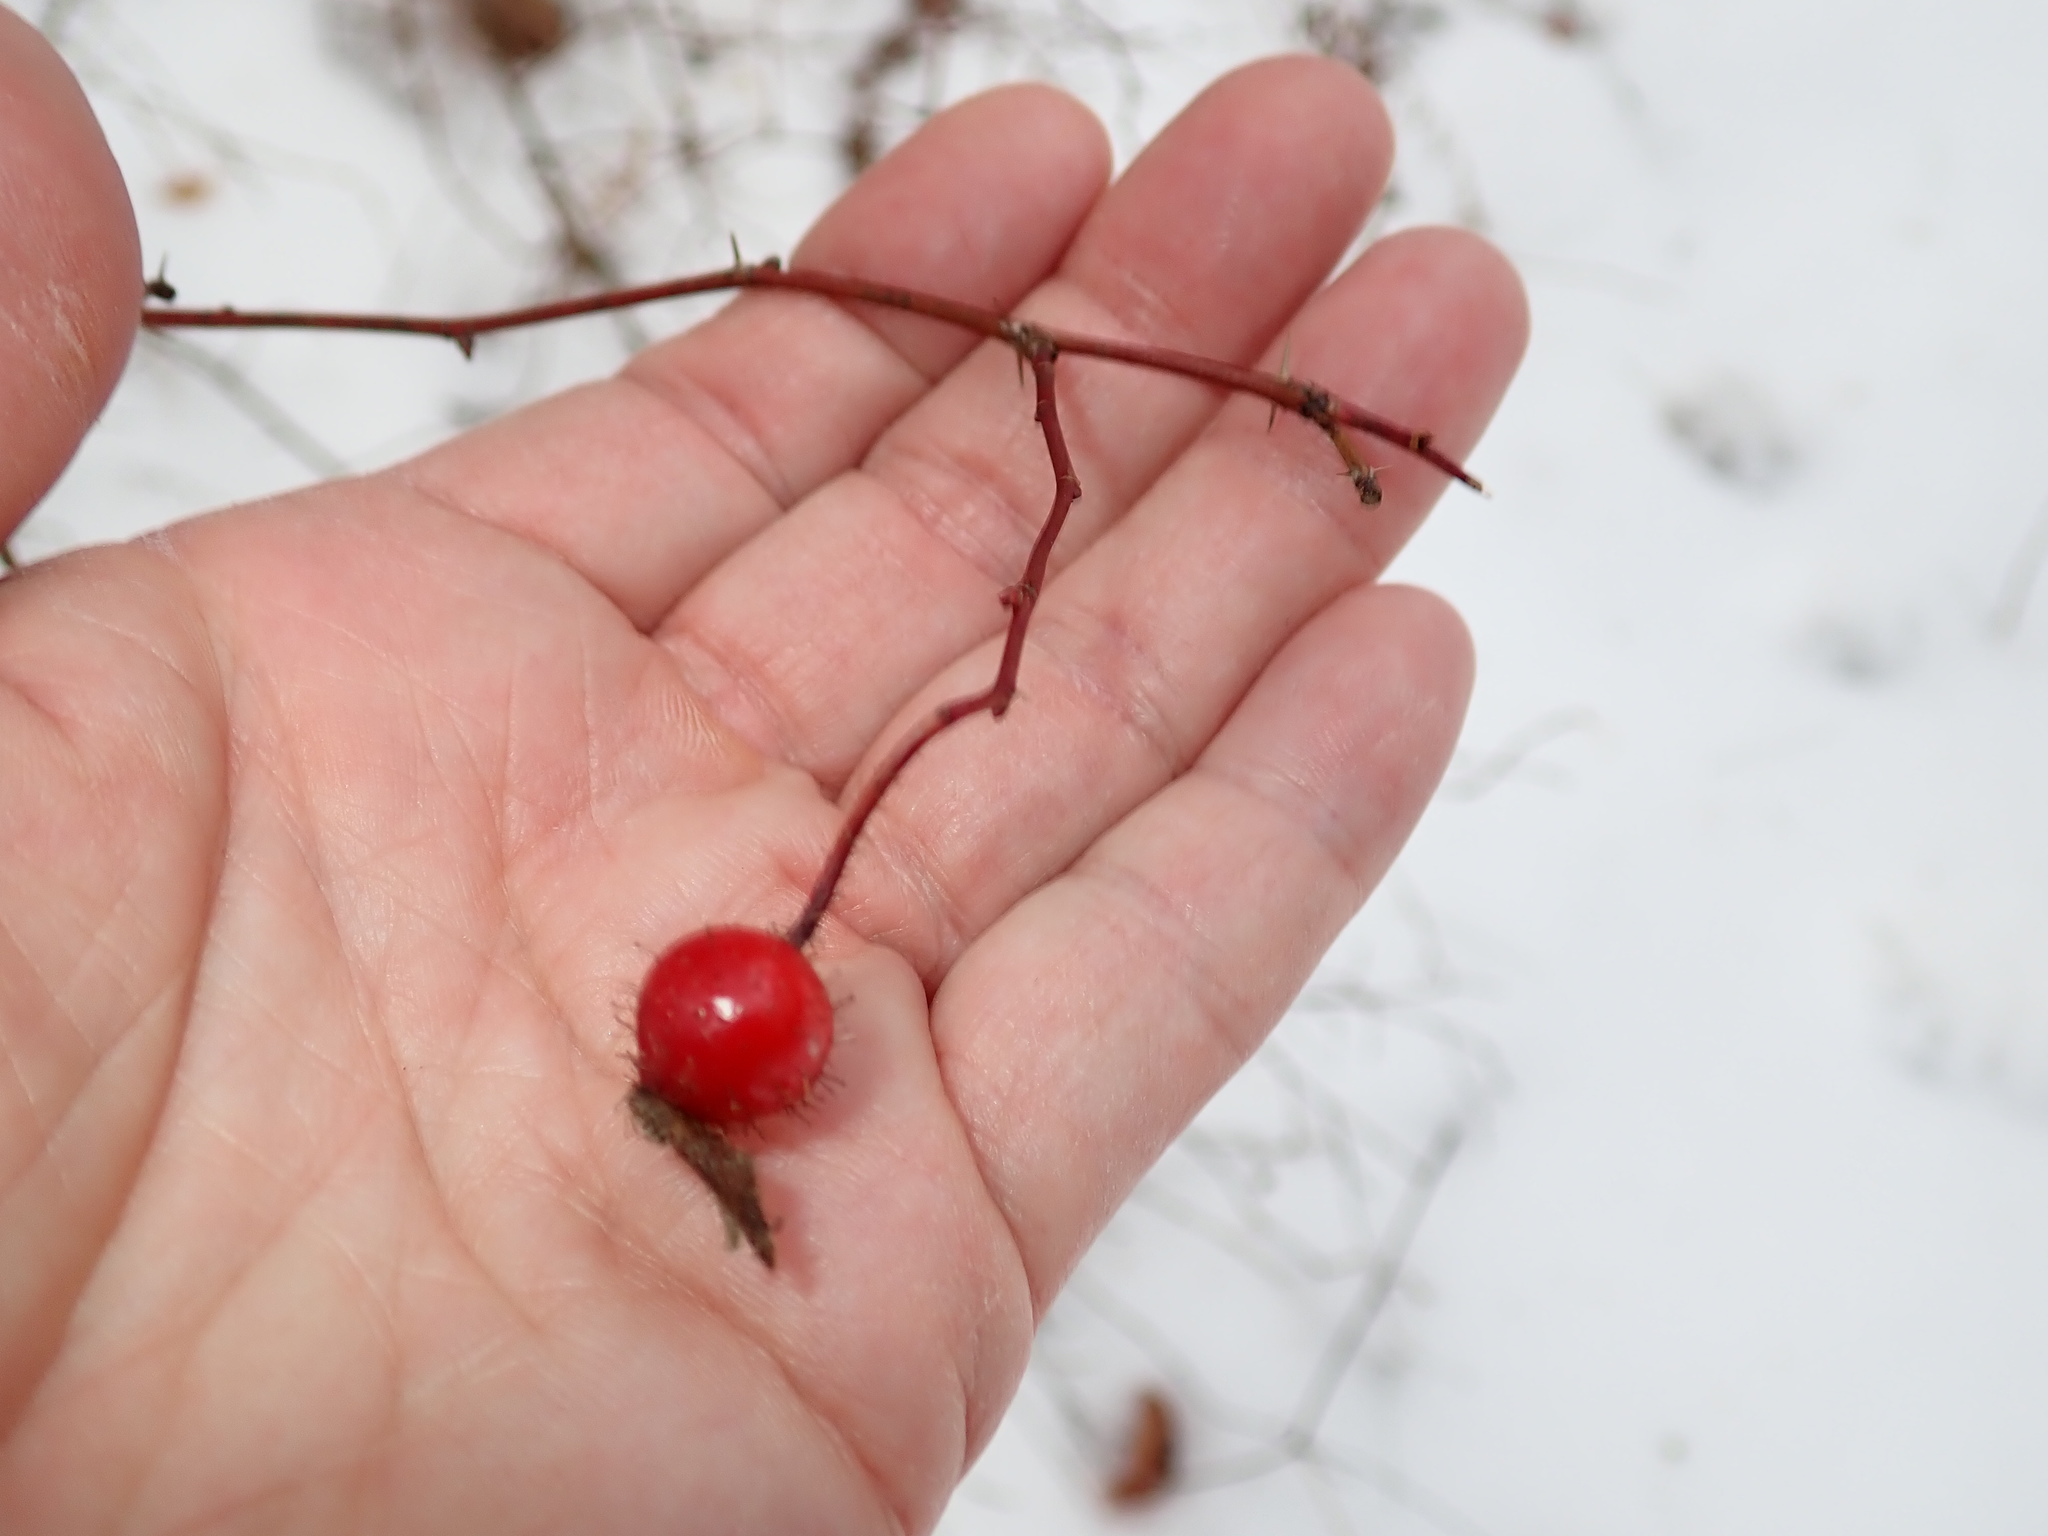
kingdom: Plantae
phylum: Tracheophyta
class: Magnoliopsida
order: Rosales
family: Rosaceae
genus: Rosa
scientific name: Rosa
